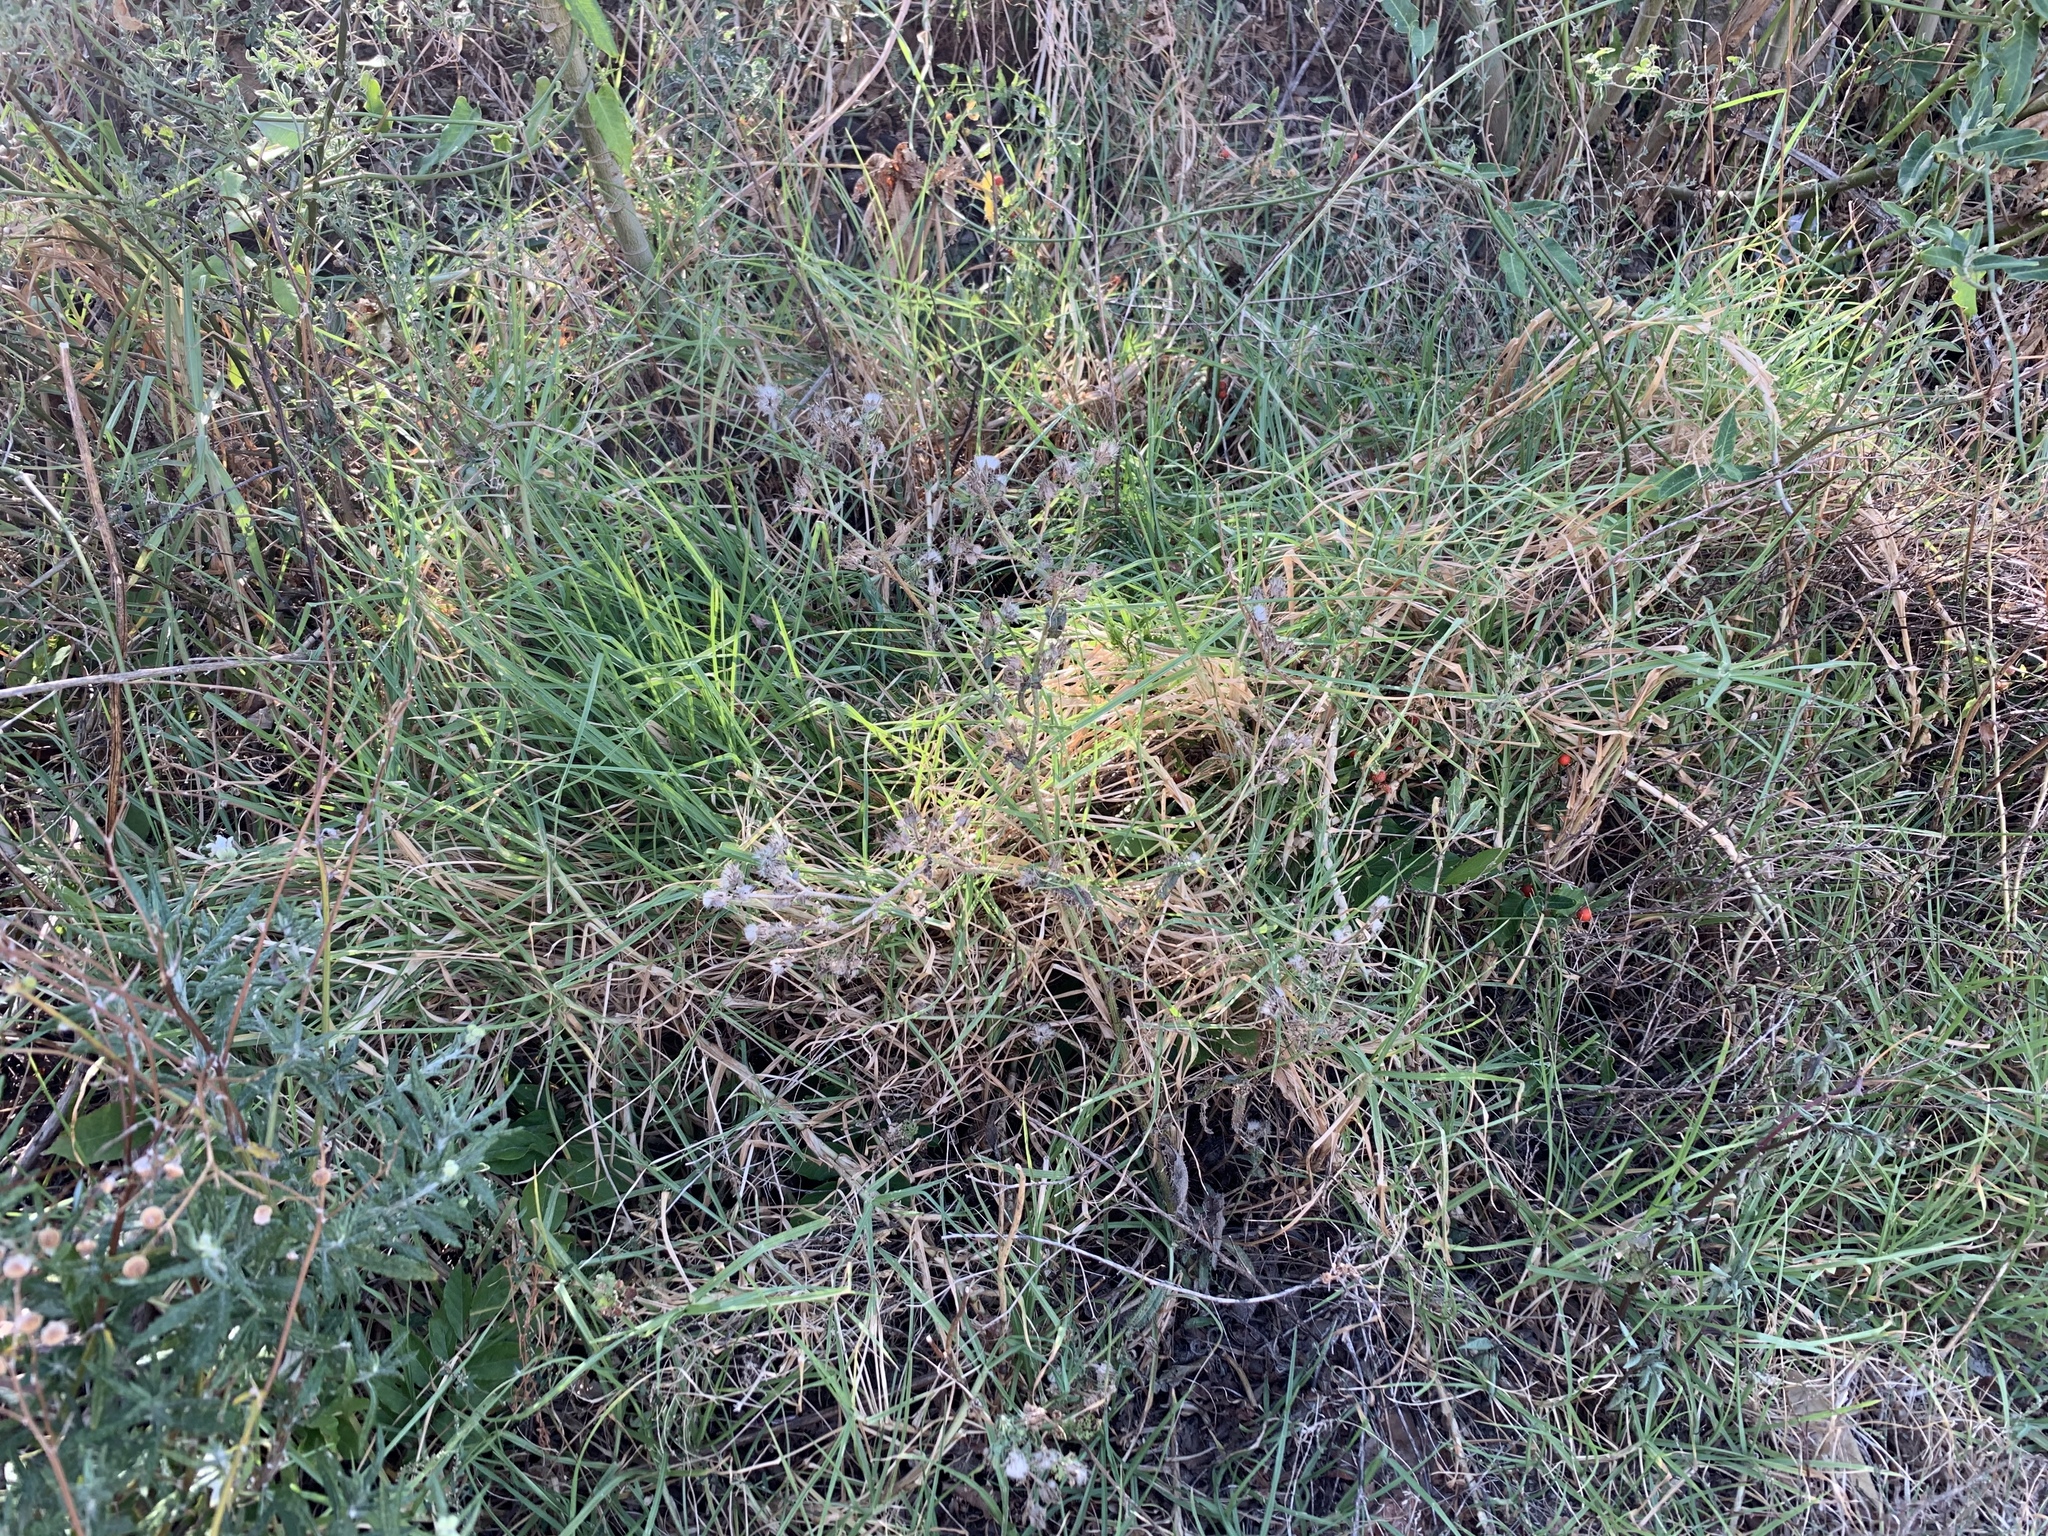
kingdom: Plantae
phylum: Tracheophyta
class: Liliopsida
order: Poales
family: Poaceae
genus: Cenchrus
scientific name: Cenchrus clandestinus
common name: Kikuyugrass
